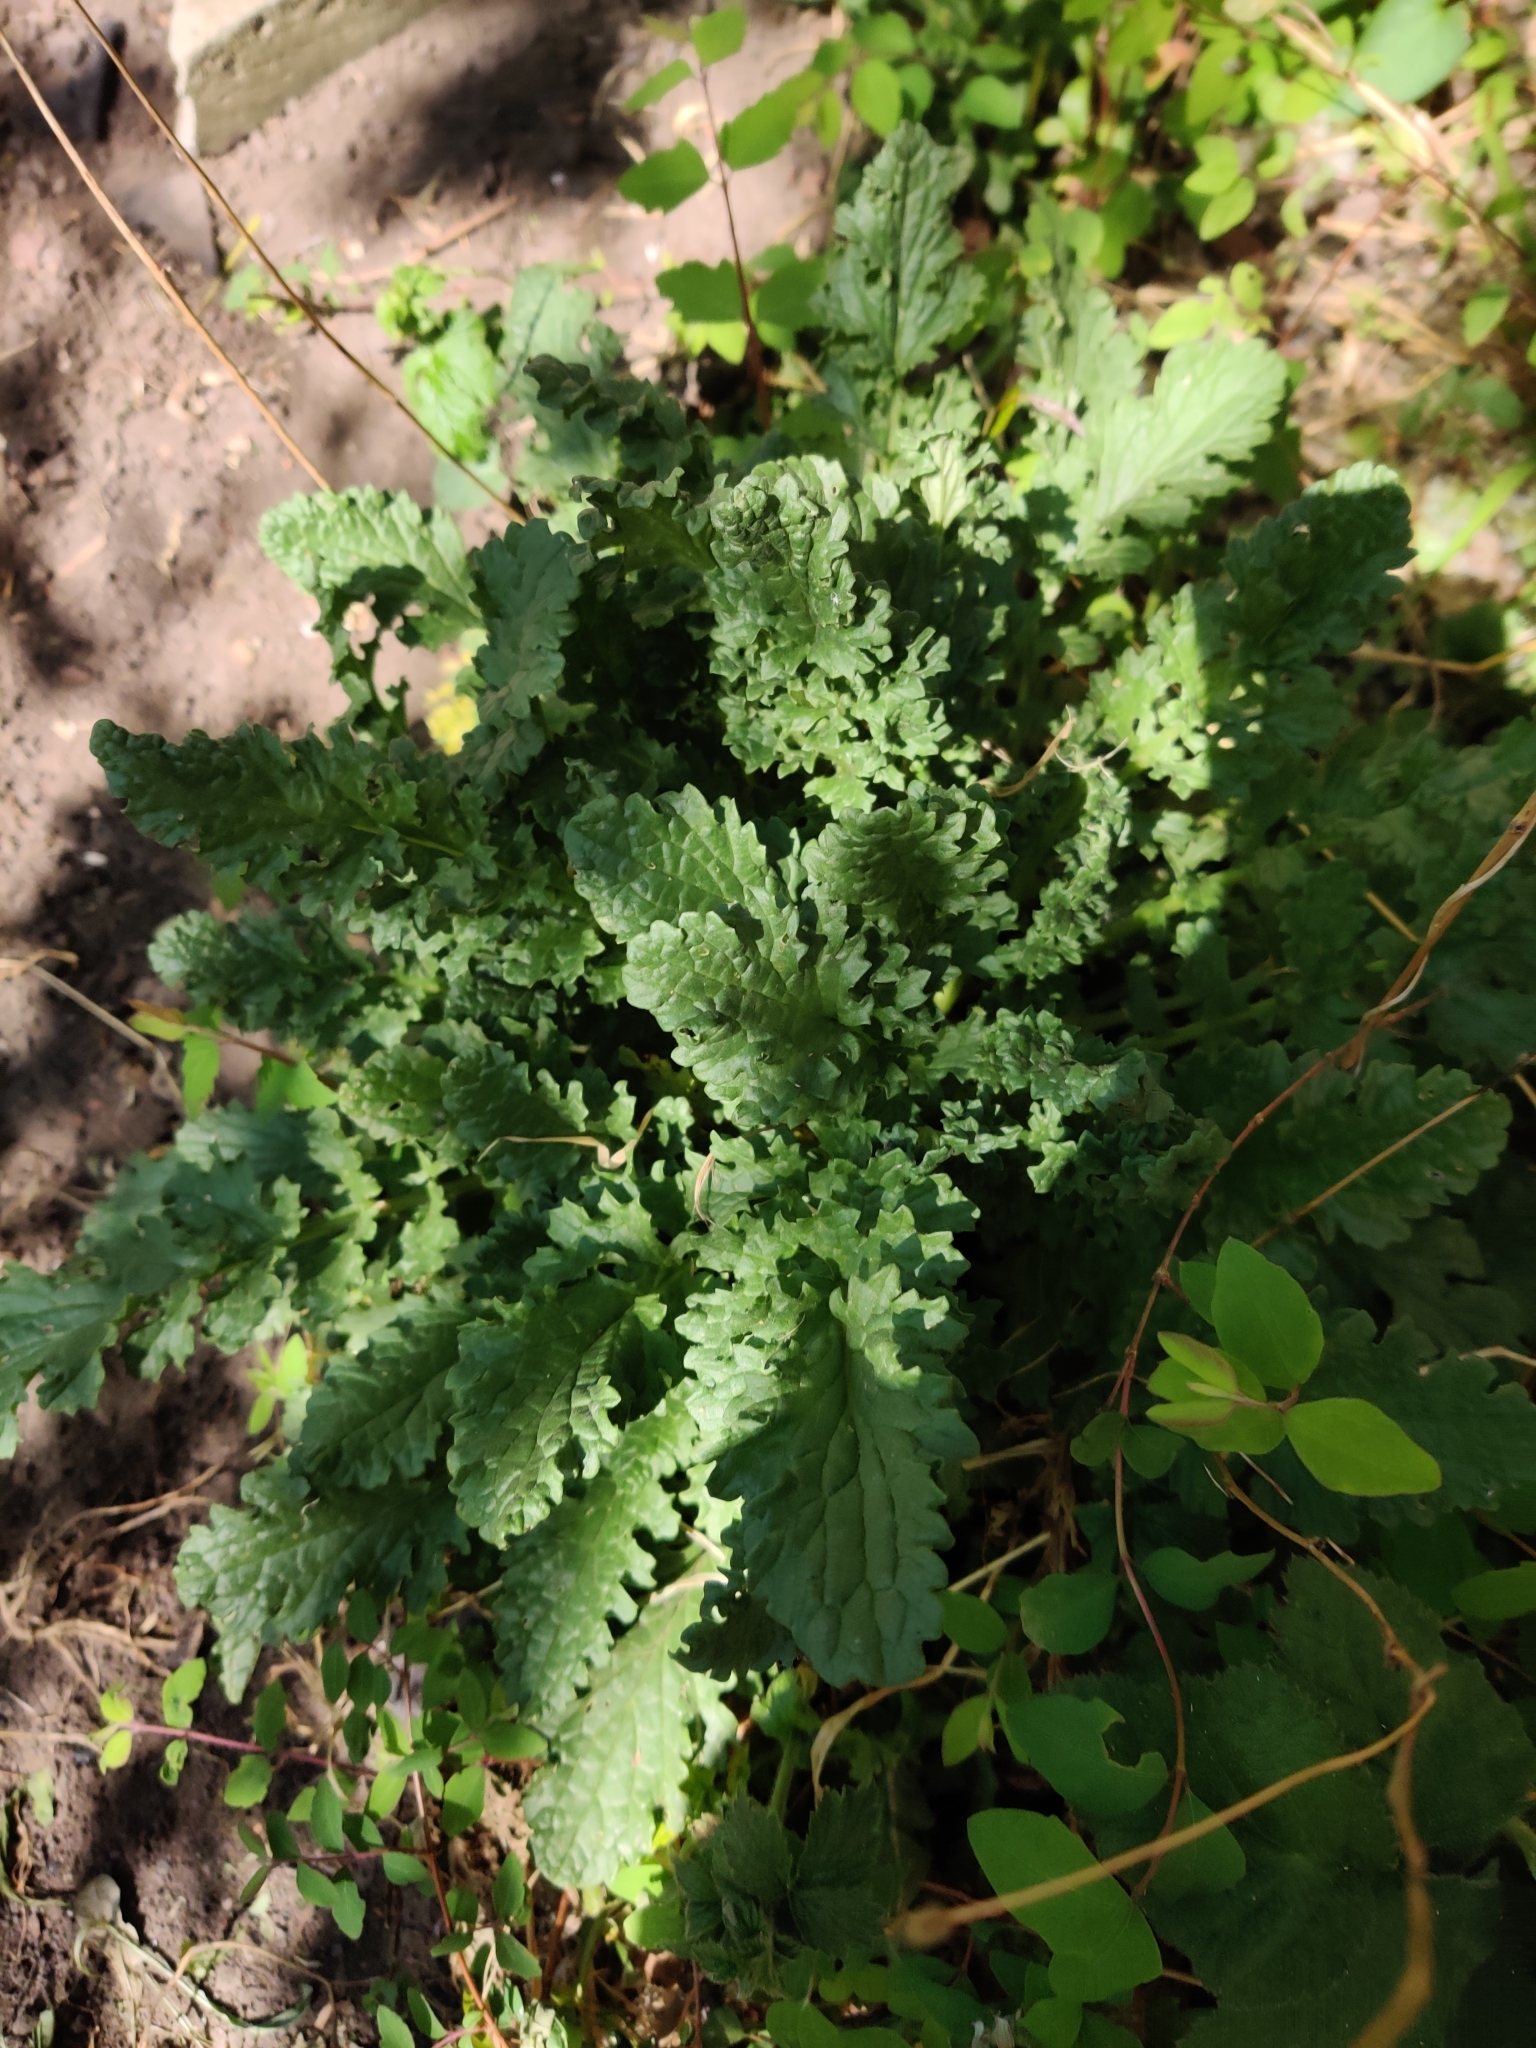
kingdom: Plantae
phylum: Tracheophyta
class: Magnoliopsida
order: Asterales
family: Asteraceae
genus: Jacobaea
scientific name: Jacobaea vulgaris
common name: Stinking willie
